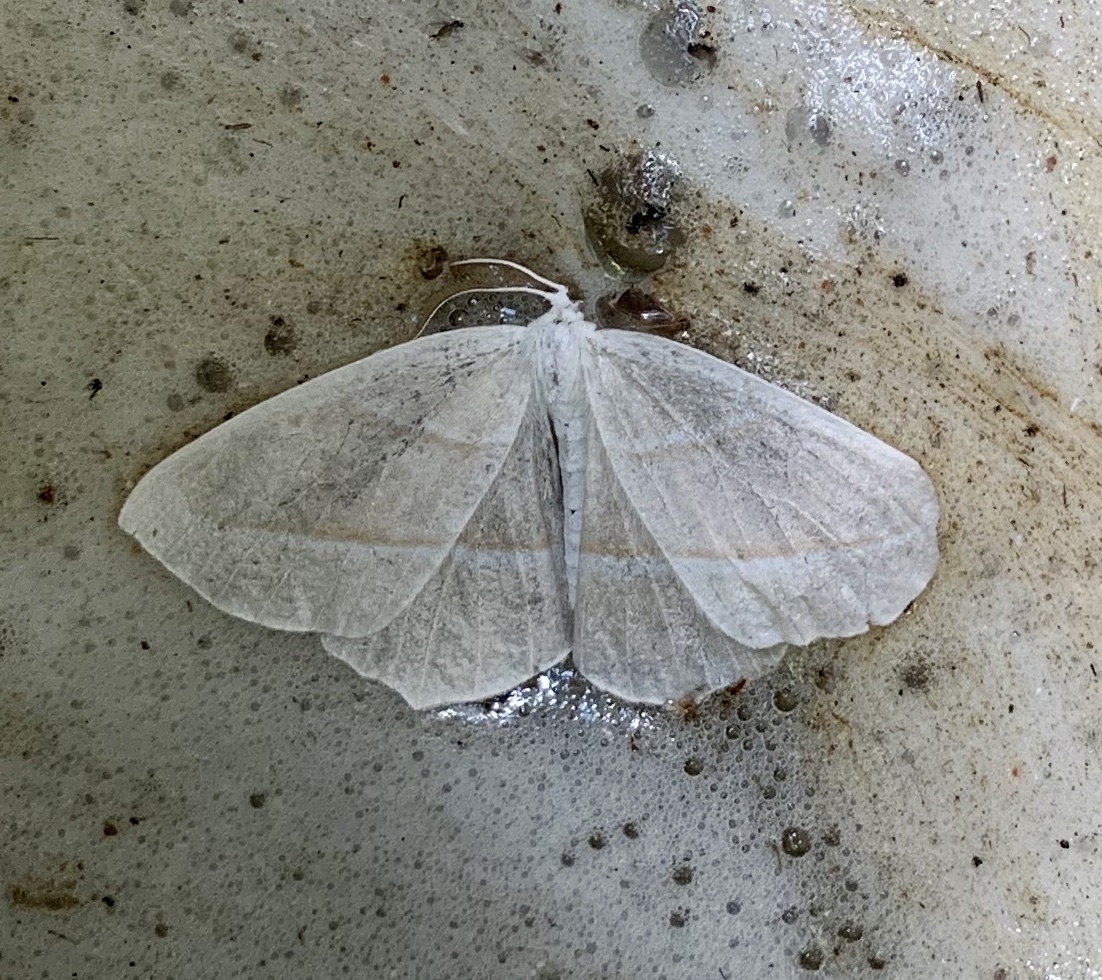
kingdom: Animalia
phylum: Arthropoda
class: Insecta
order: Lepidoptera
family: Geometridae
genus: Campaea
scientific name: Campaea perlata
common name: Fringed looper
